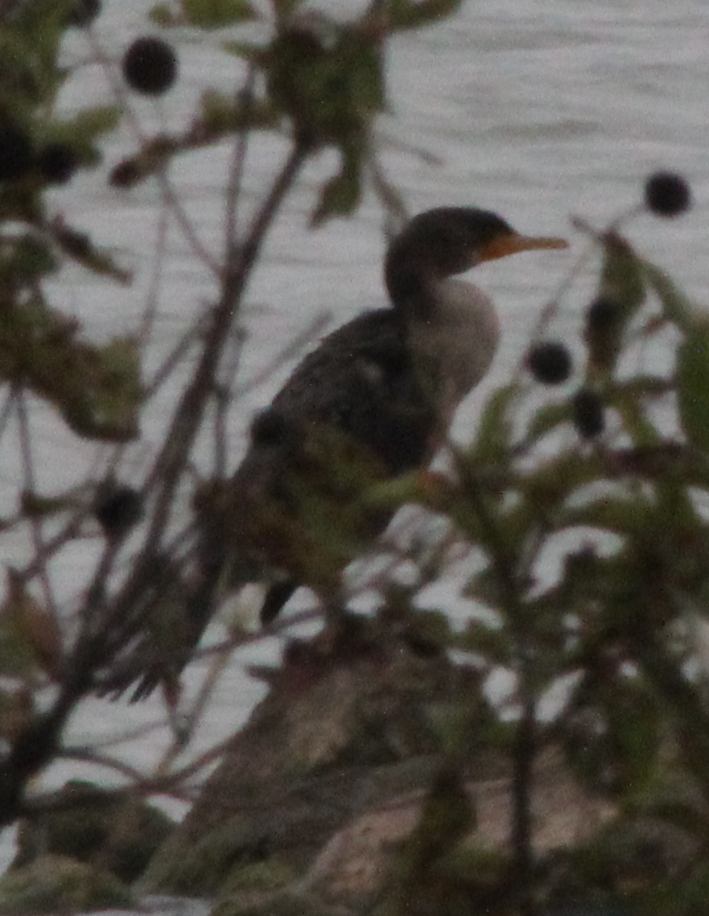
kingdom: Animalia
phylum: Chordata
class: Aves
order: Suliformes
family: Phalacrocoracidae
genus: Phalacrocorax
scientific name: Phalacrocorax auritus
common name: Double-crested cormorant
